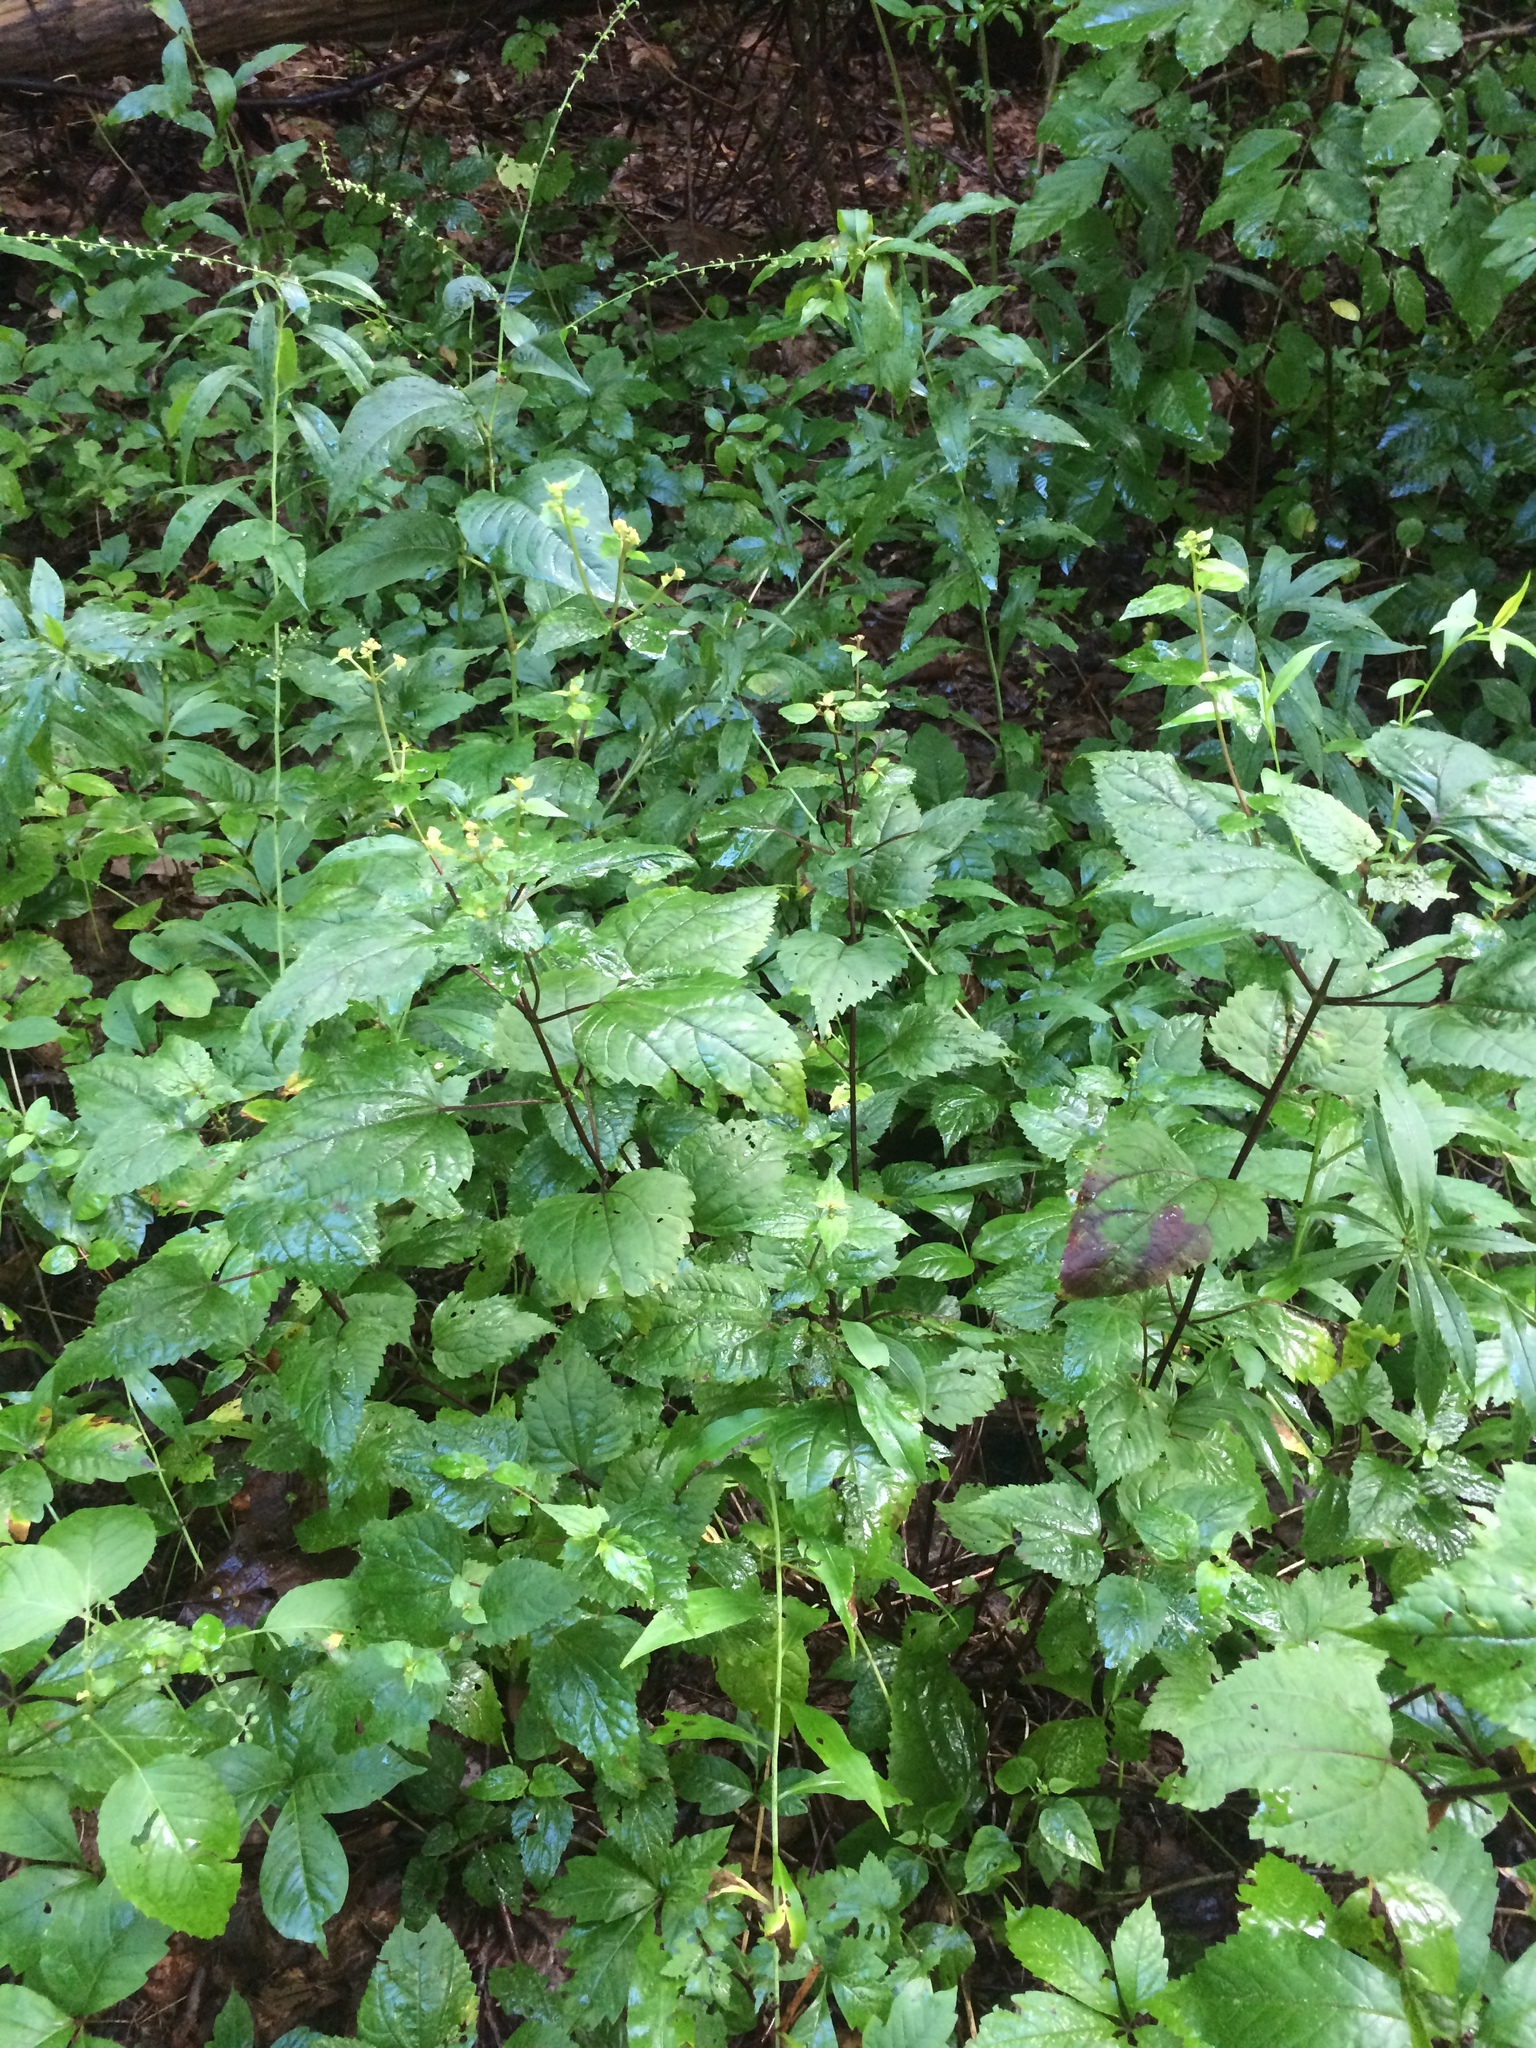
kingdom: Plantae
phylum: Tracheophyta
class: Magnoliopsida
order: Asterales
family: Asteraceae
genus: Ageratina
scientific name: Ageratina altissima
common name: White snakeroot
